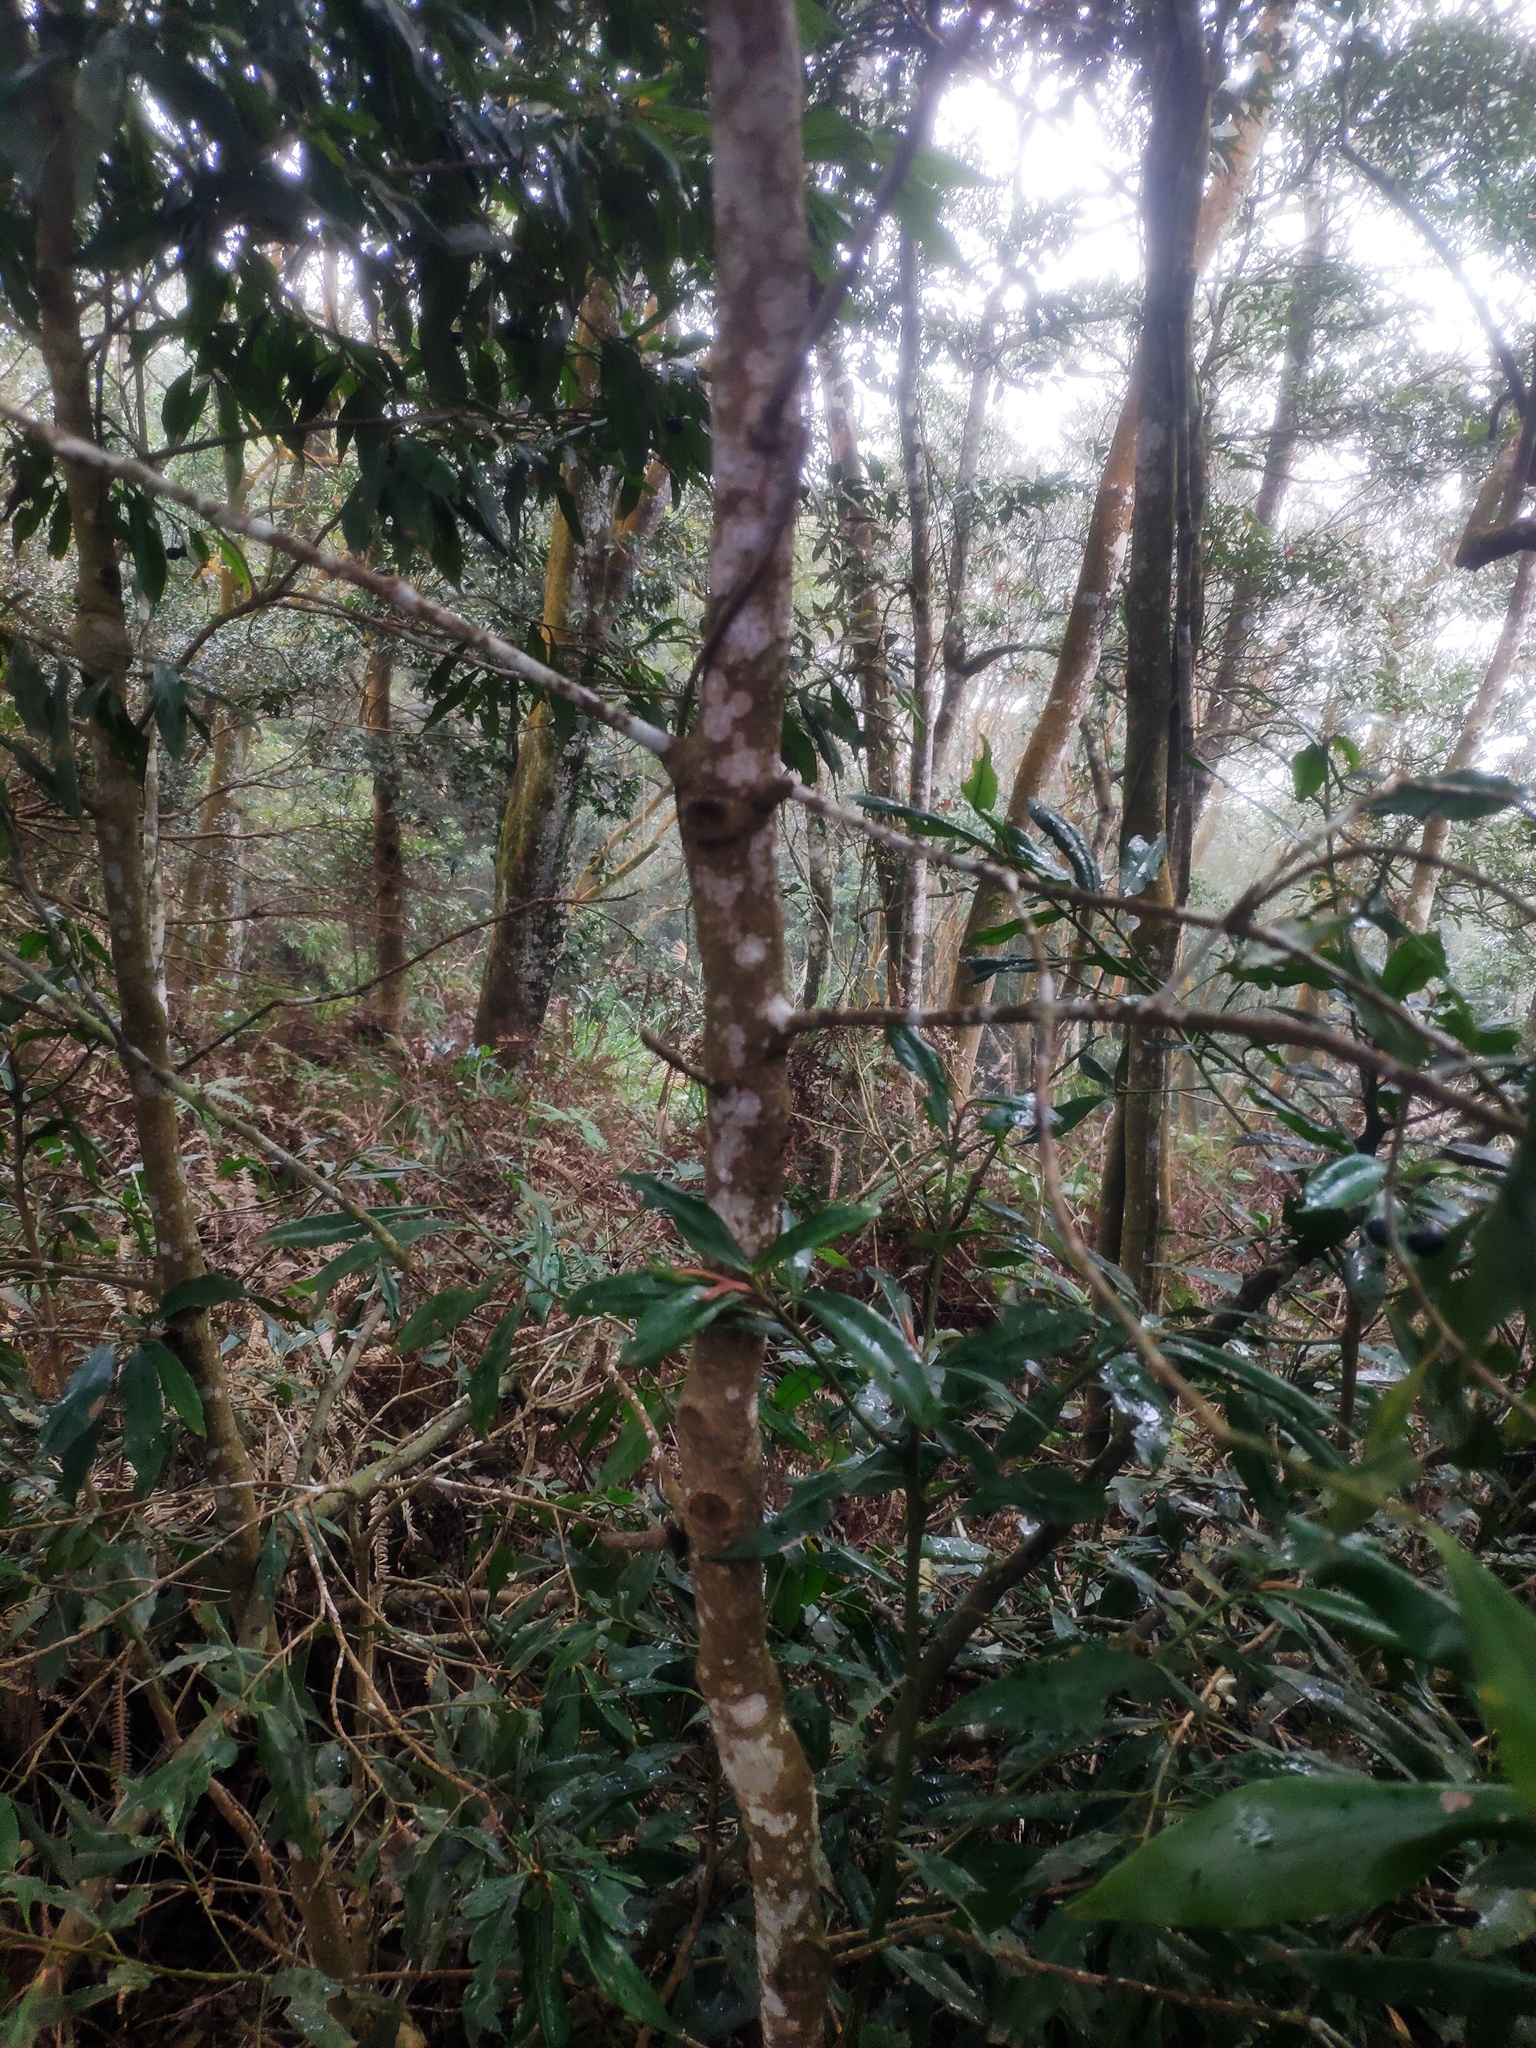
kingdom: Plantae
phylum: Tracheophyta
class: Magnoliopsida
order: Ericales
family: Primulaceae
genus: Ardisia
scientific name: Ardisia quinquegona
